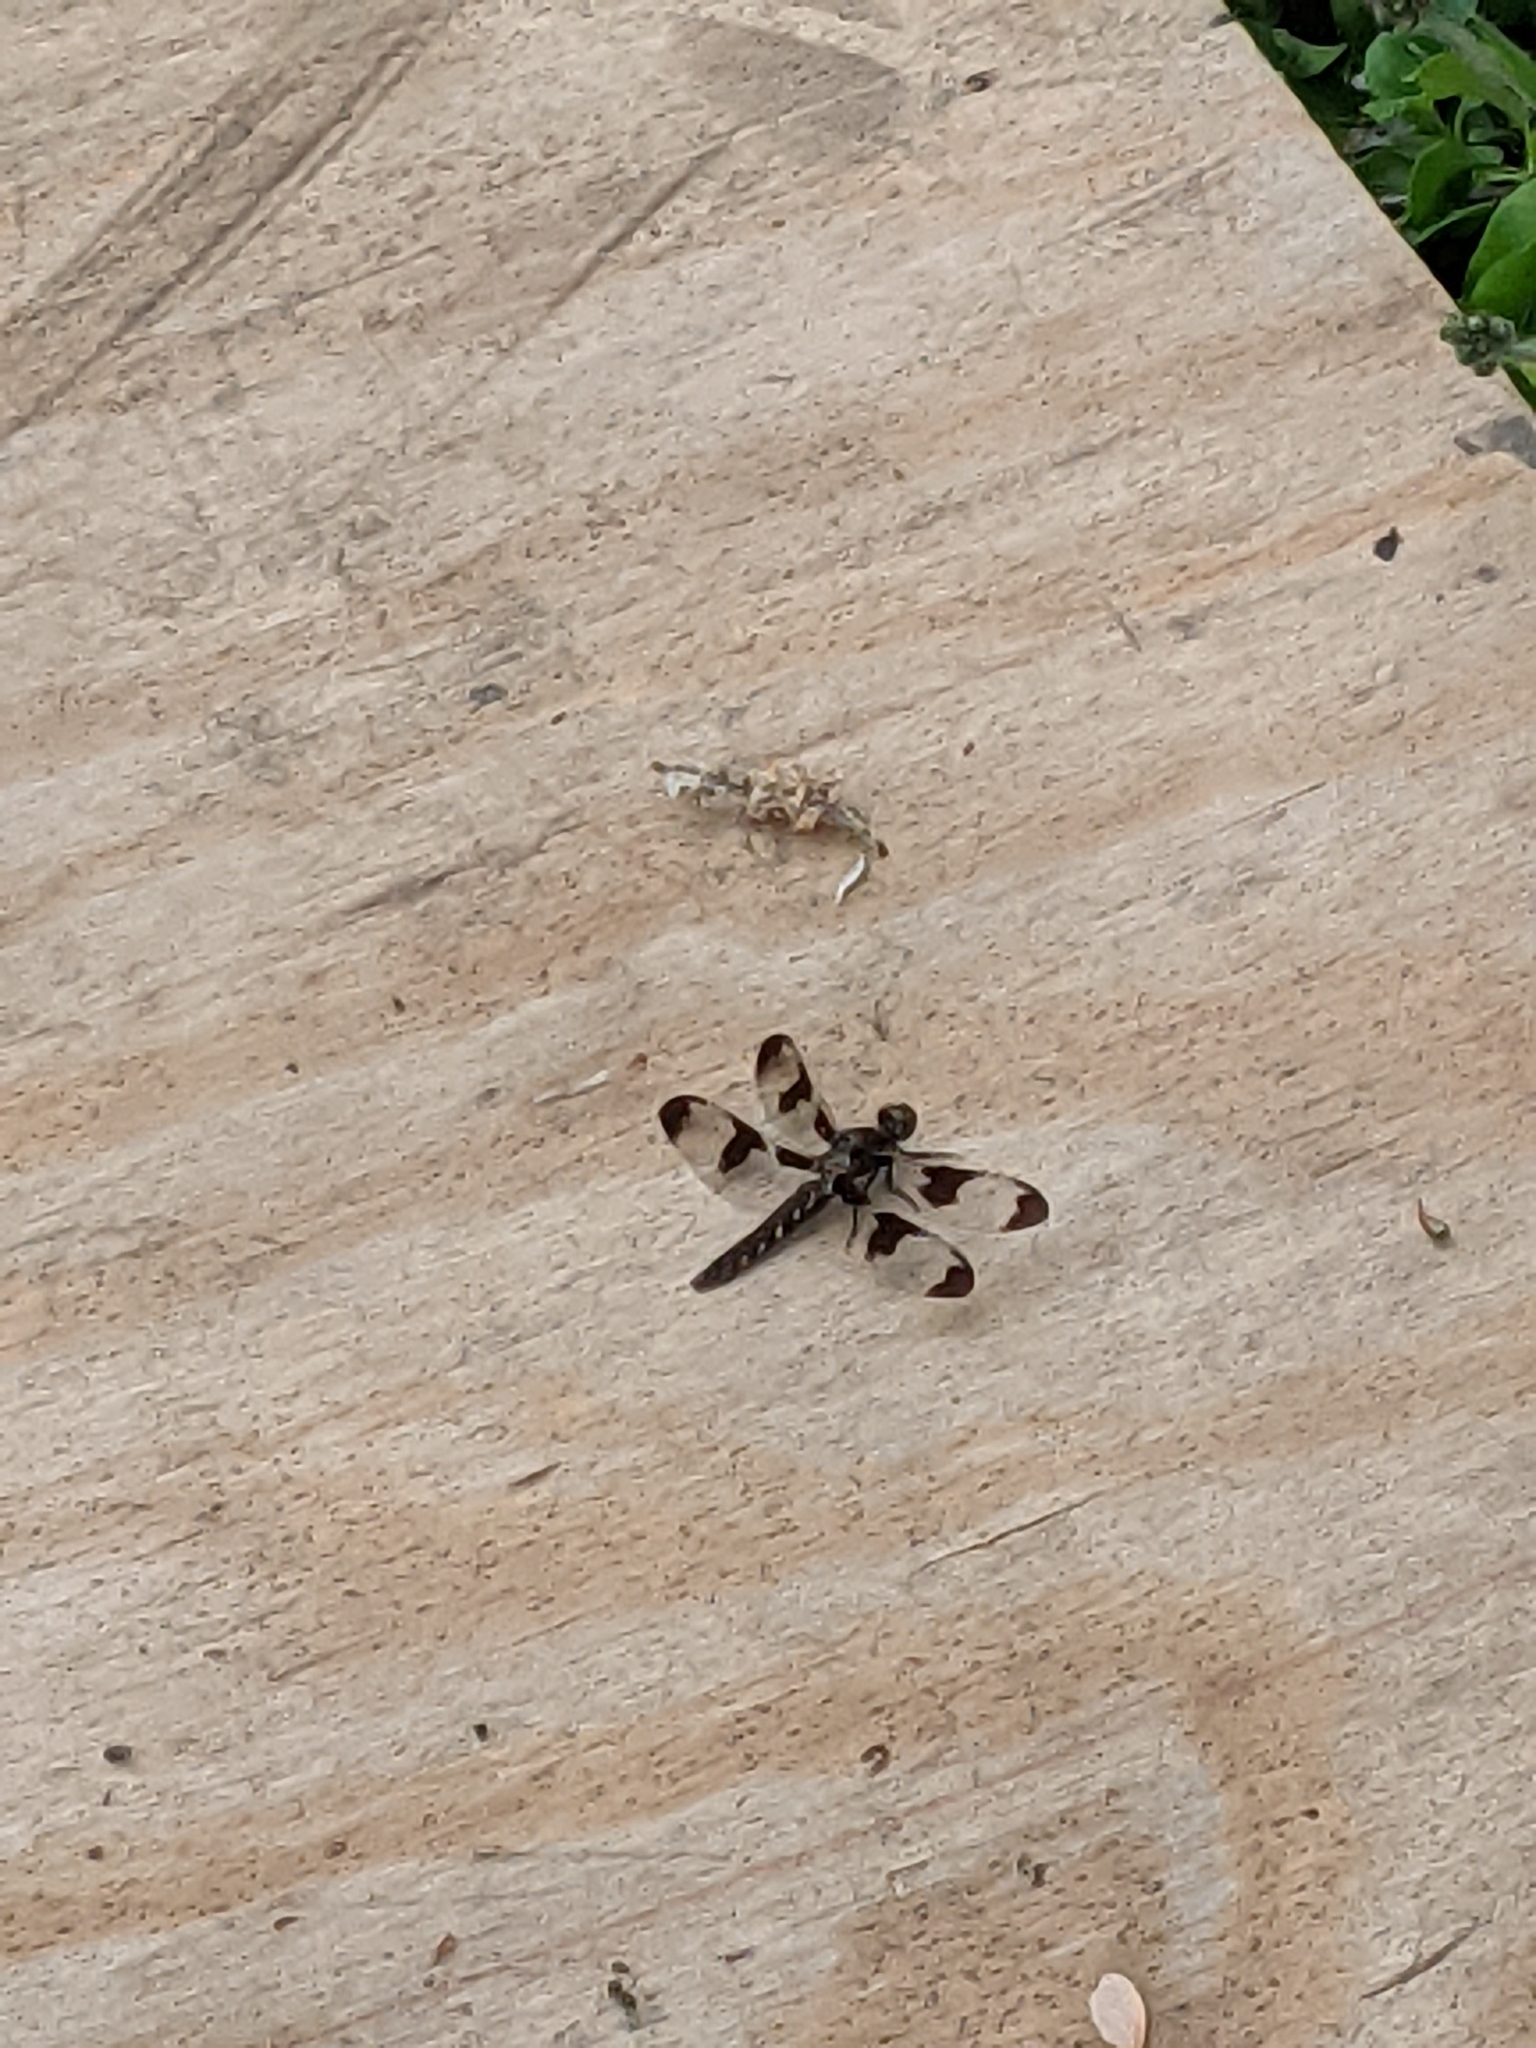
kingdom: Animalia
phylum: Arthropoda
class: Insecta
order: Odonata
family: Libellulidae
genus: Plathemis
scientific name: Plathemis lydia
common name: Common whitetail
